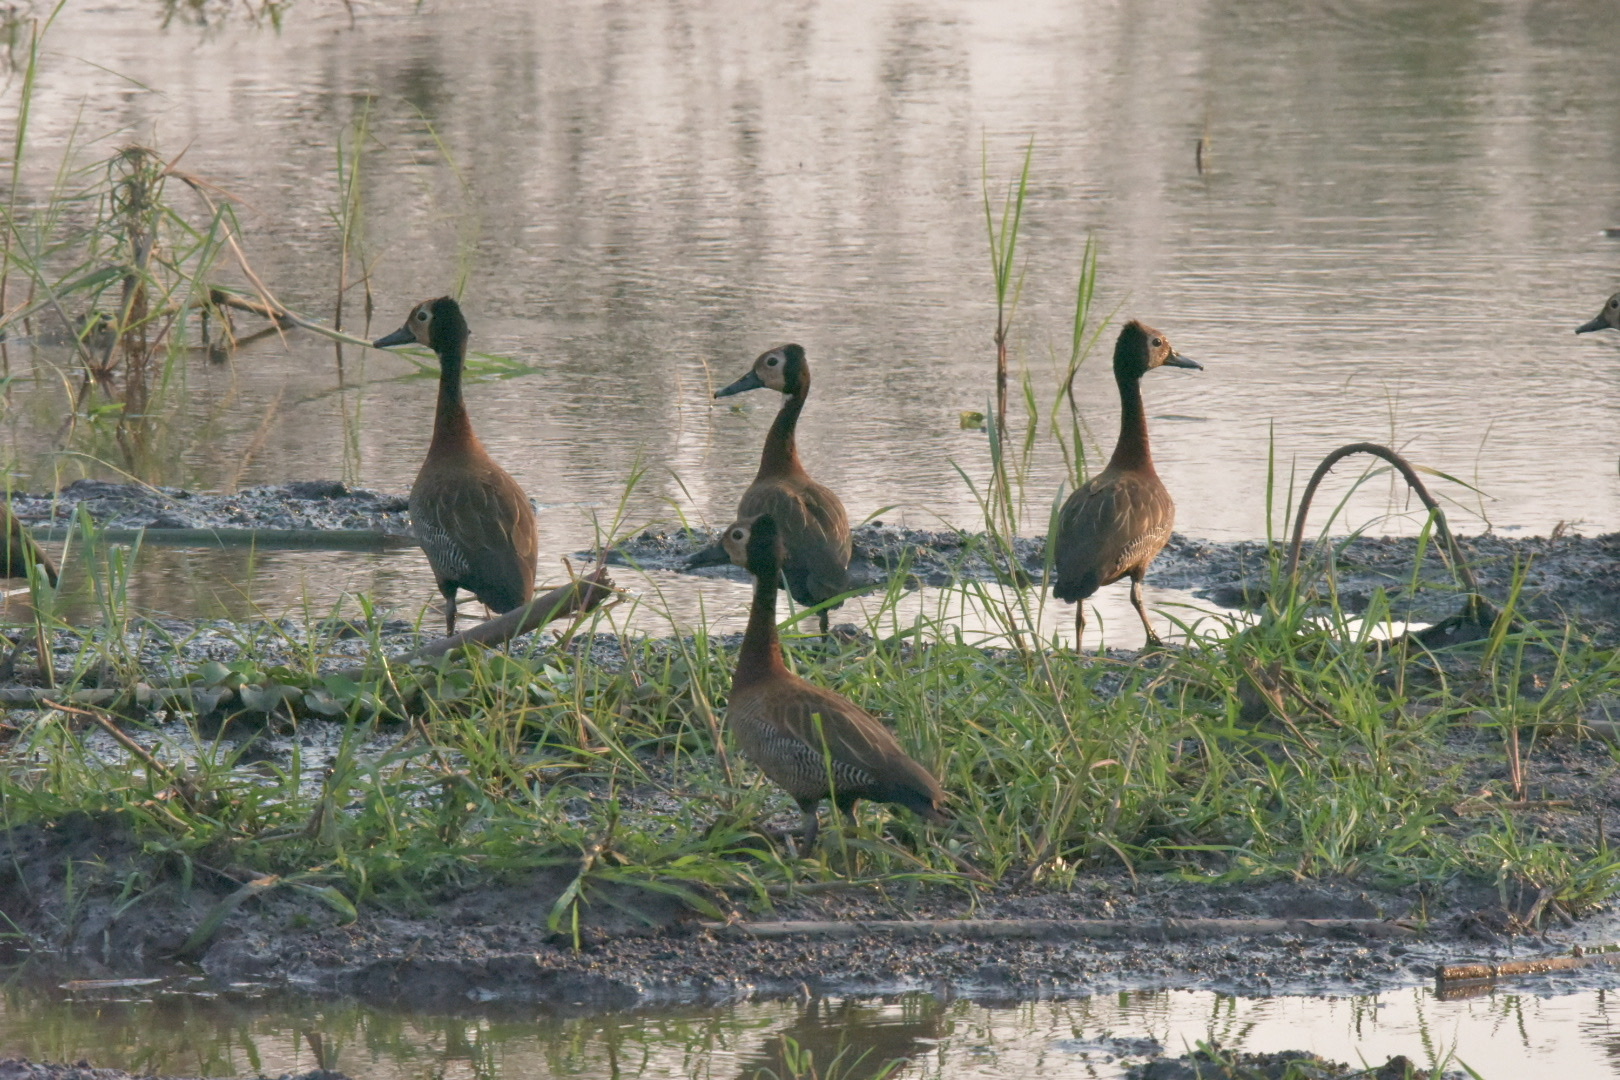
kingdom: Animalia
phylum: Chordata
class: Aves
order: Anseriformes
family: Anatidae
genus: Dendrocygna
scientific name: Dendrocygna viduata
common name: White-faced whistling duck
